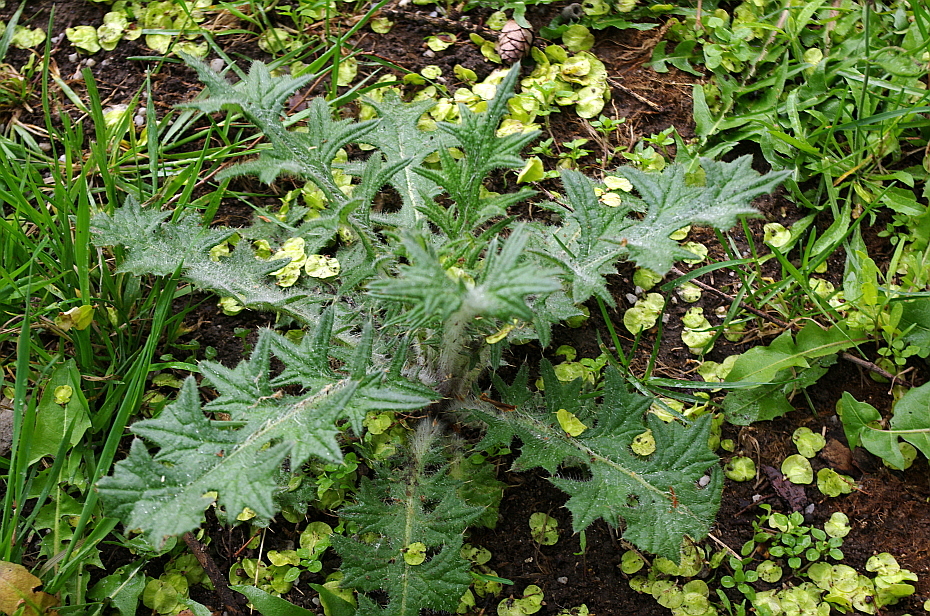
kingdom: Plantae
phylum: Tracheophyta
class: Magnoliopsida
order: Asterales
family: Asteraceae
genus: Cirsium
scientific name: Cirsium vulgare
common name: Bull thistle
